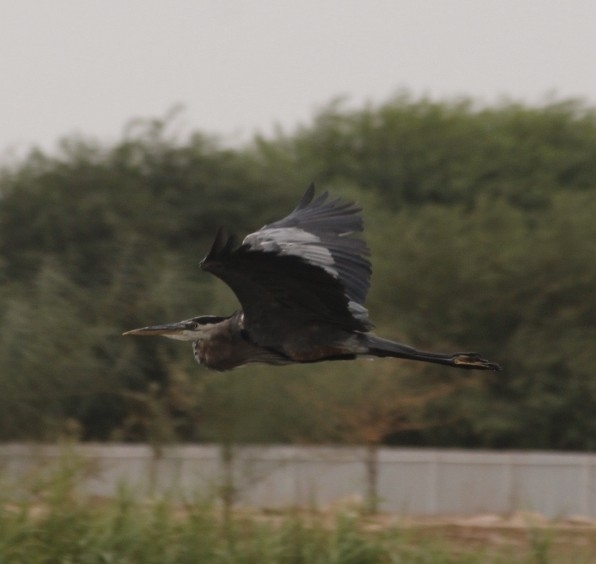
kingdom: Animalia
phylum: Chordata
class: Aves
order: Pelecaniformes
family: Ardeidae
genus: Ardea
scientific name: Ardea herodias
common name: Great blue heron
